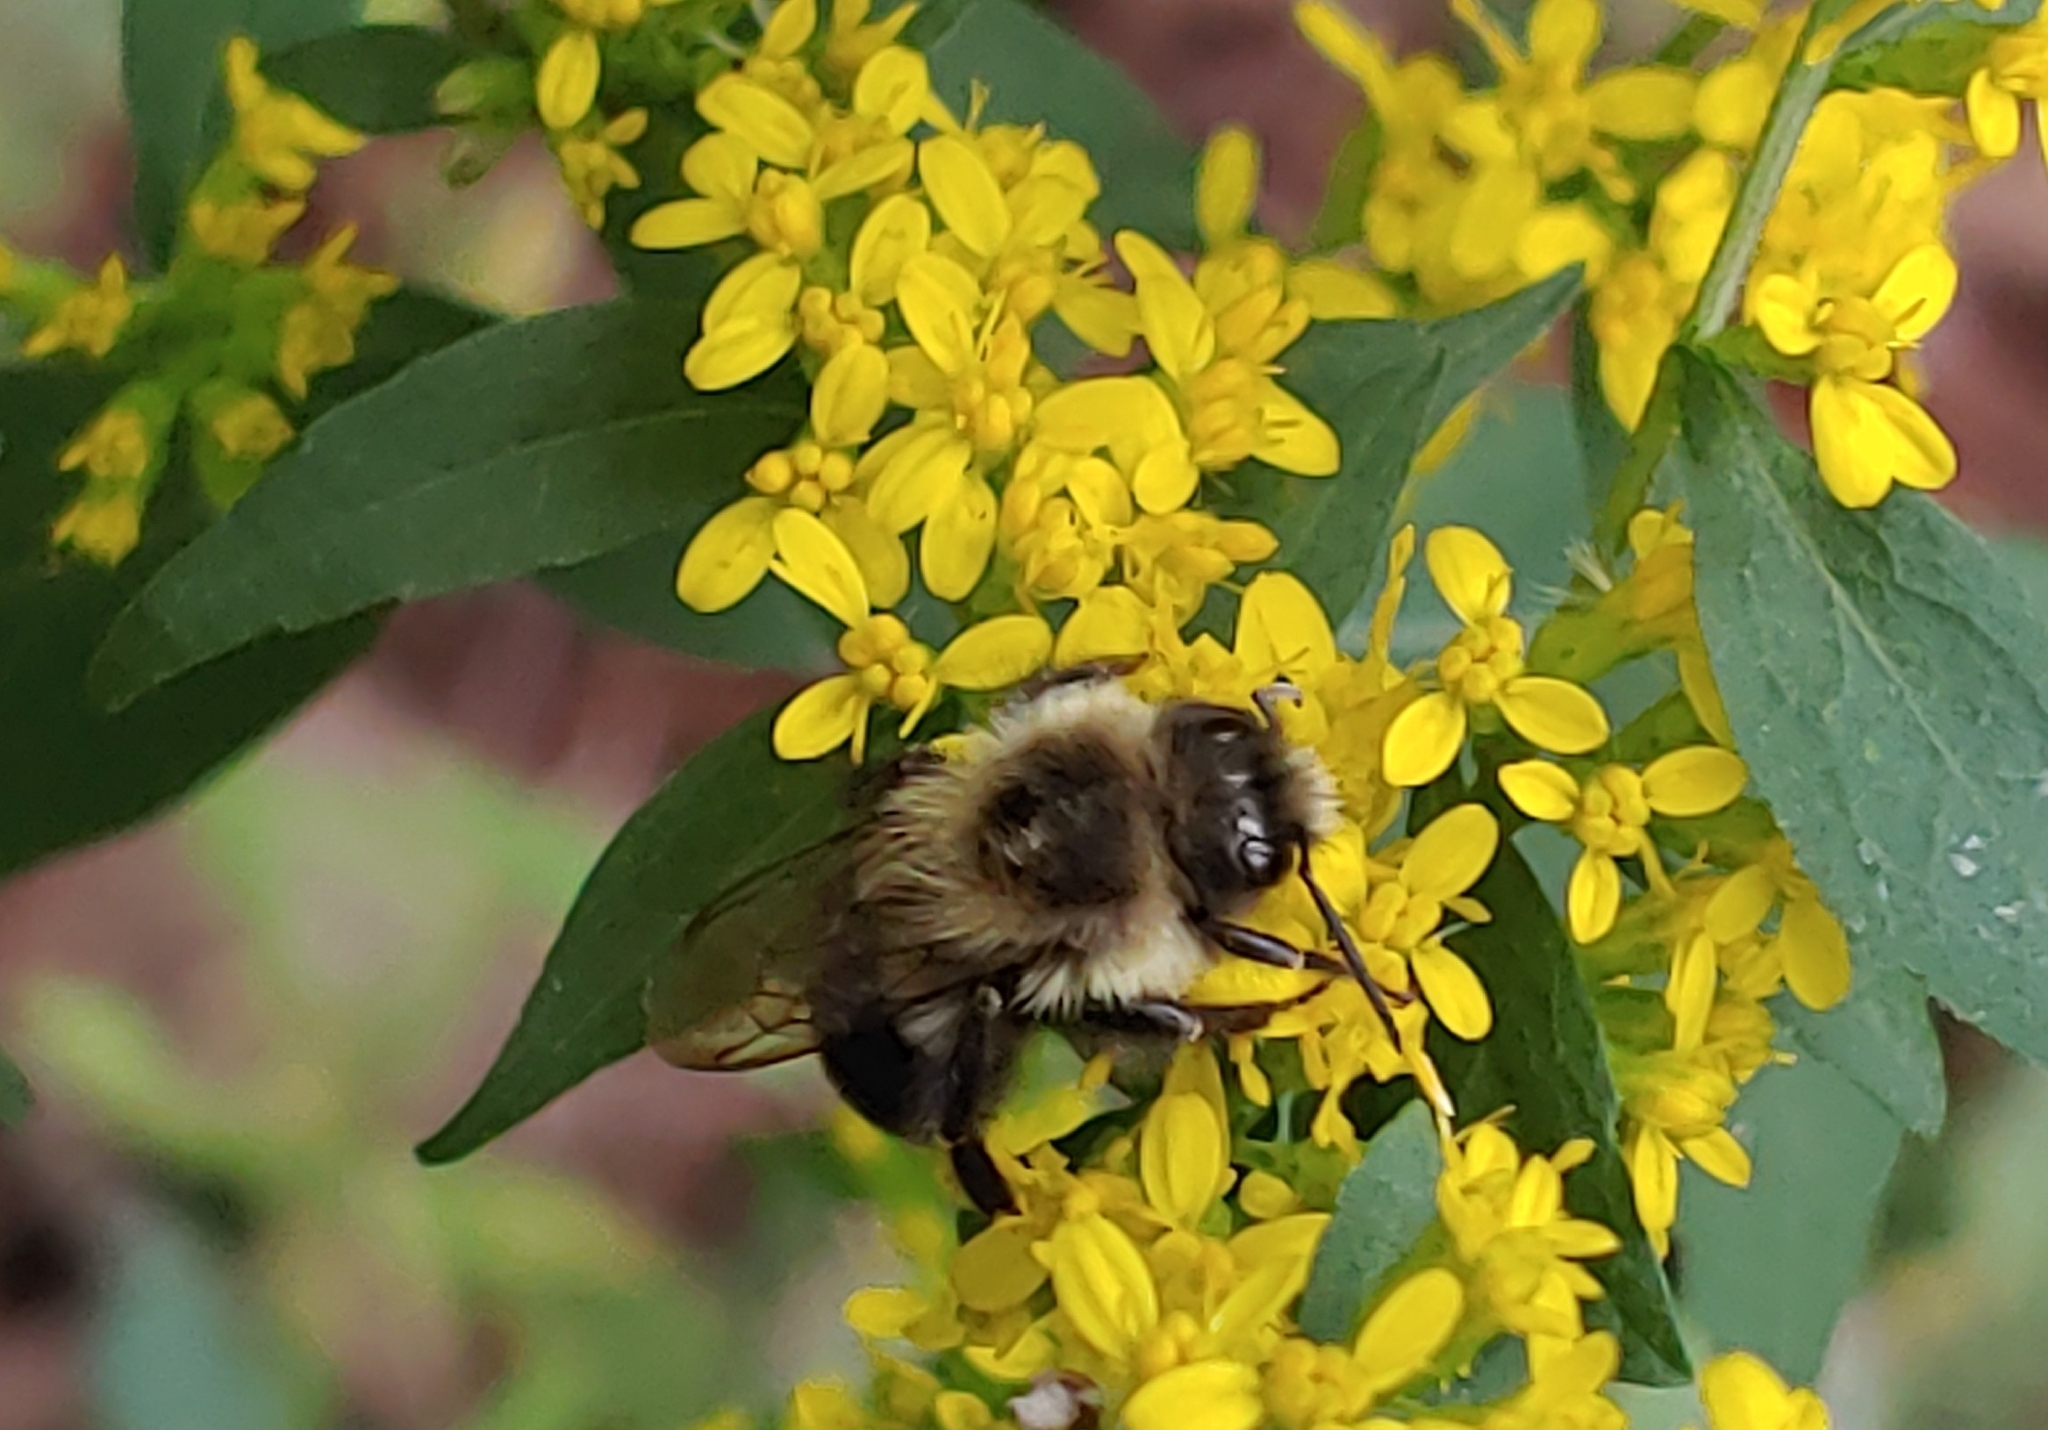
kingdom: Animalia
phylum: Arthropoda
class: Insecta
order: Hymenoptera
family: Apidae
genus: Bombus
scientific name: Bombus impatiens
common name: Common eastern bumble bee
